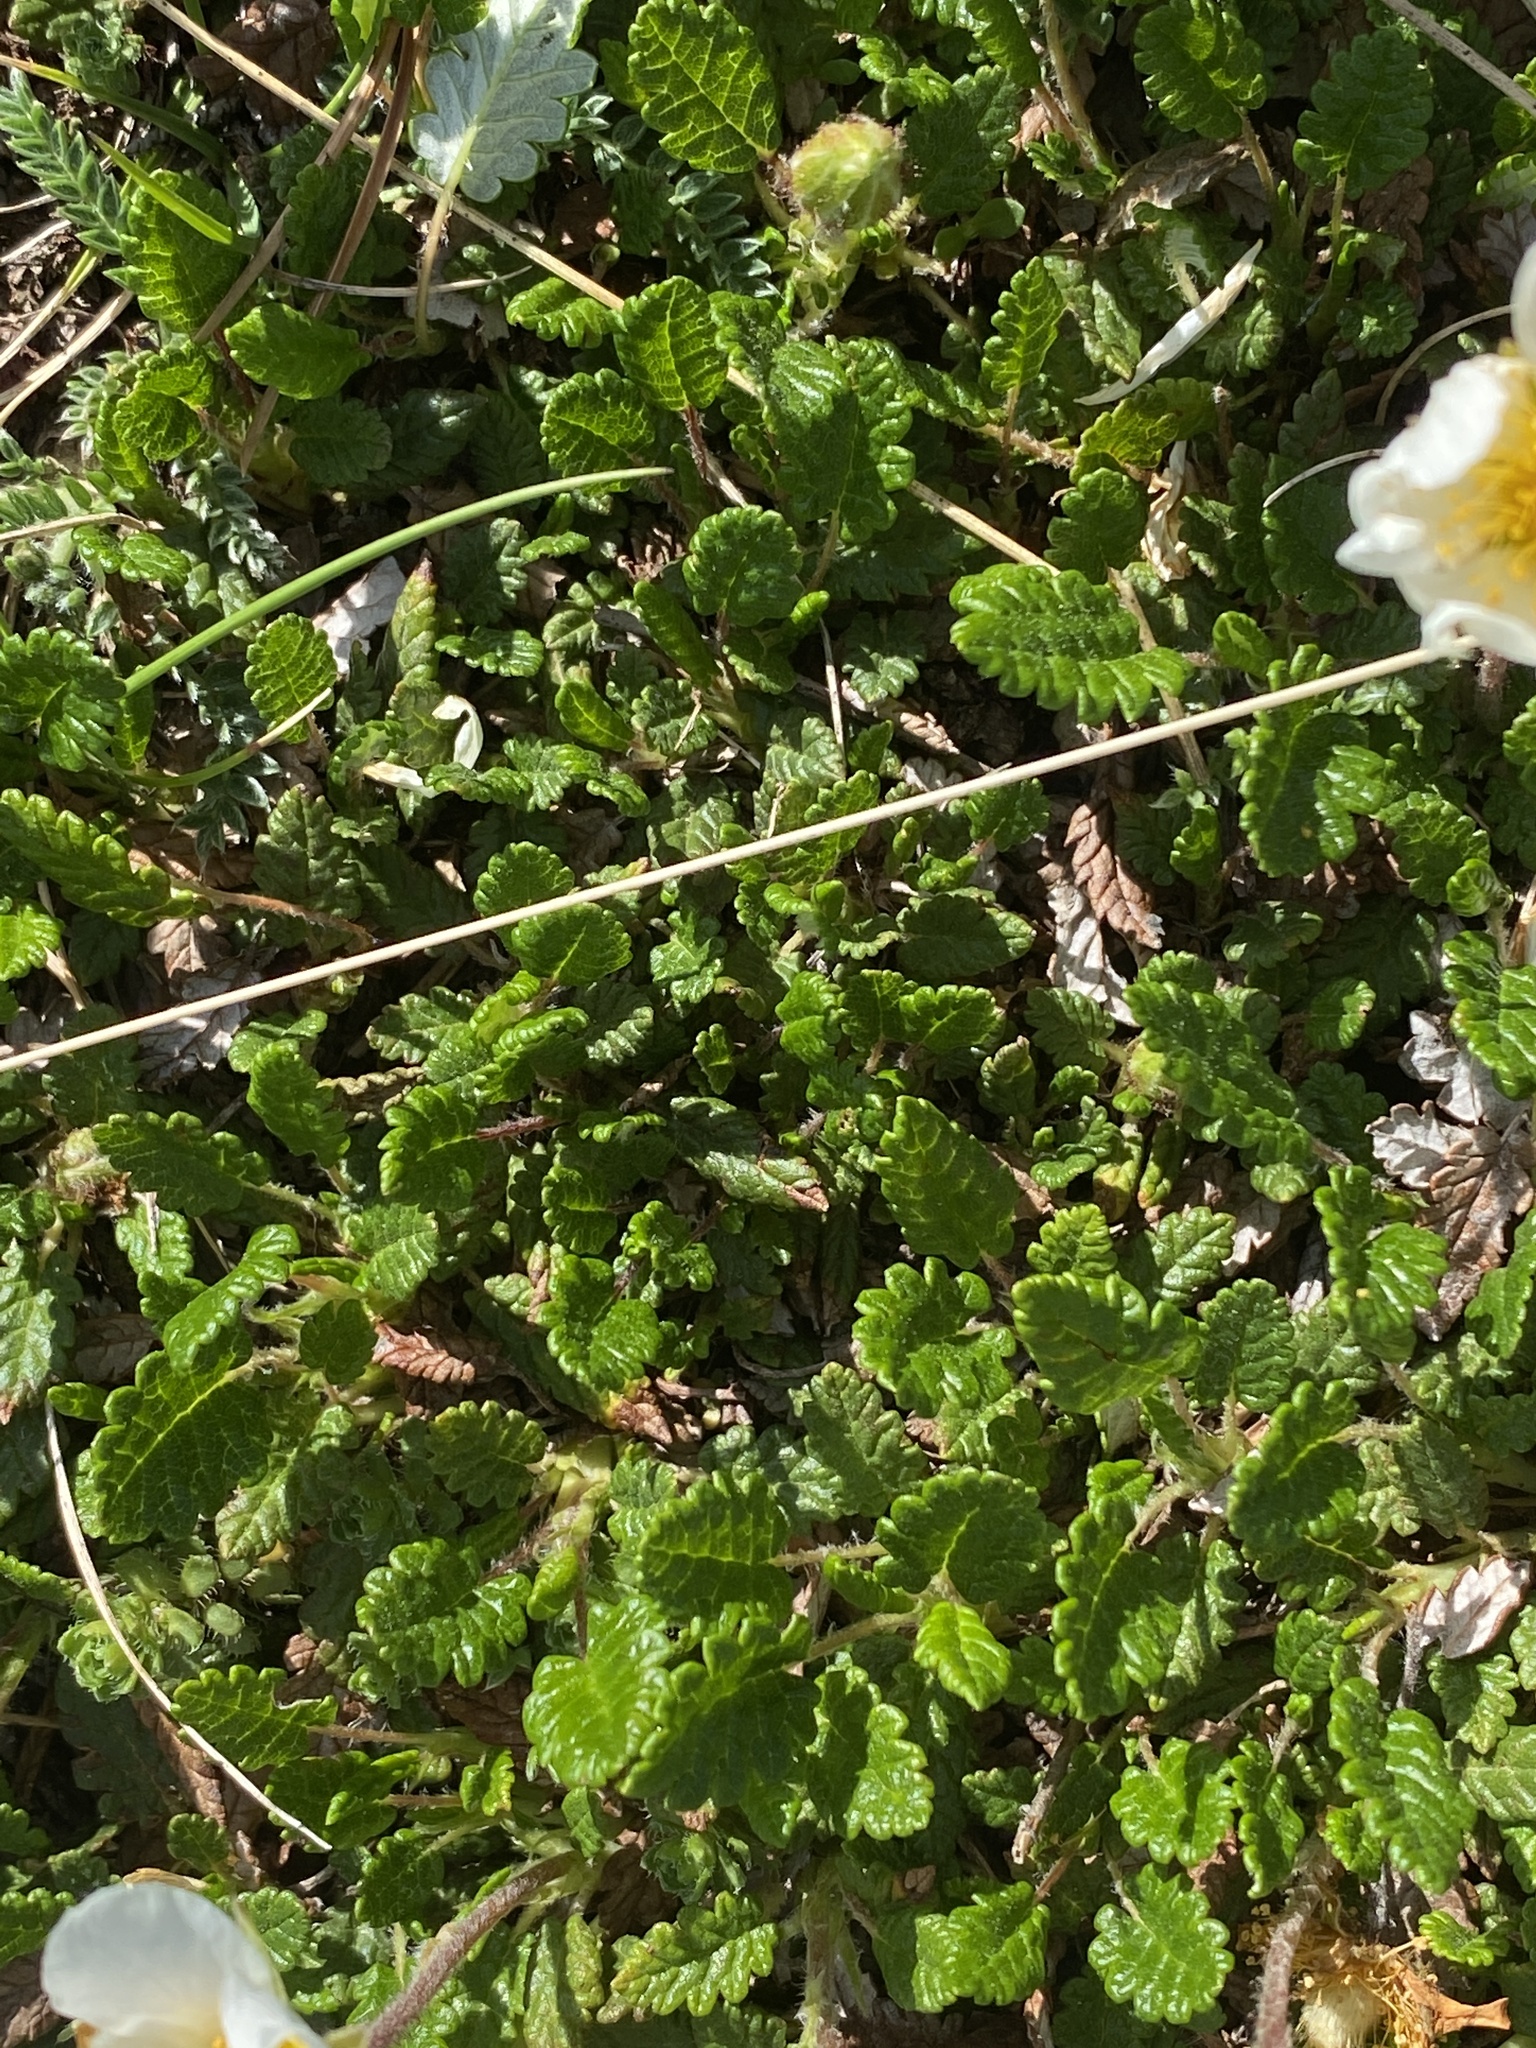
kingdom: Plantae
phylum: Tracheophyta
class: Magnoliopsida
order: Rosales
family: Rosaceae
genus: Dryas
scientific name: Dryas octopetala
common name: Eight-petal mountain-avens
